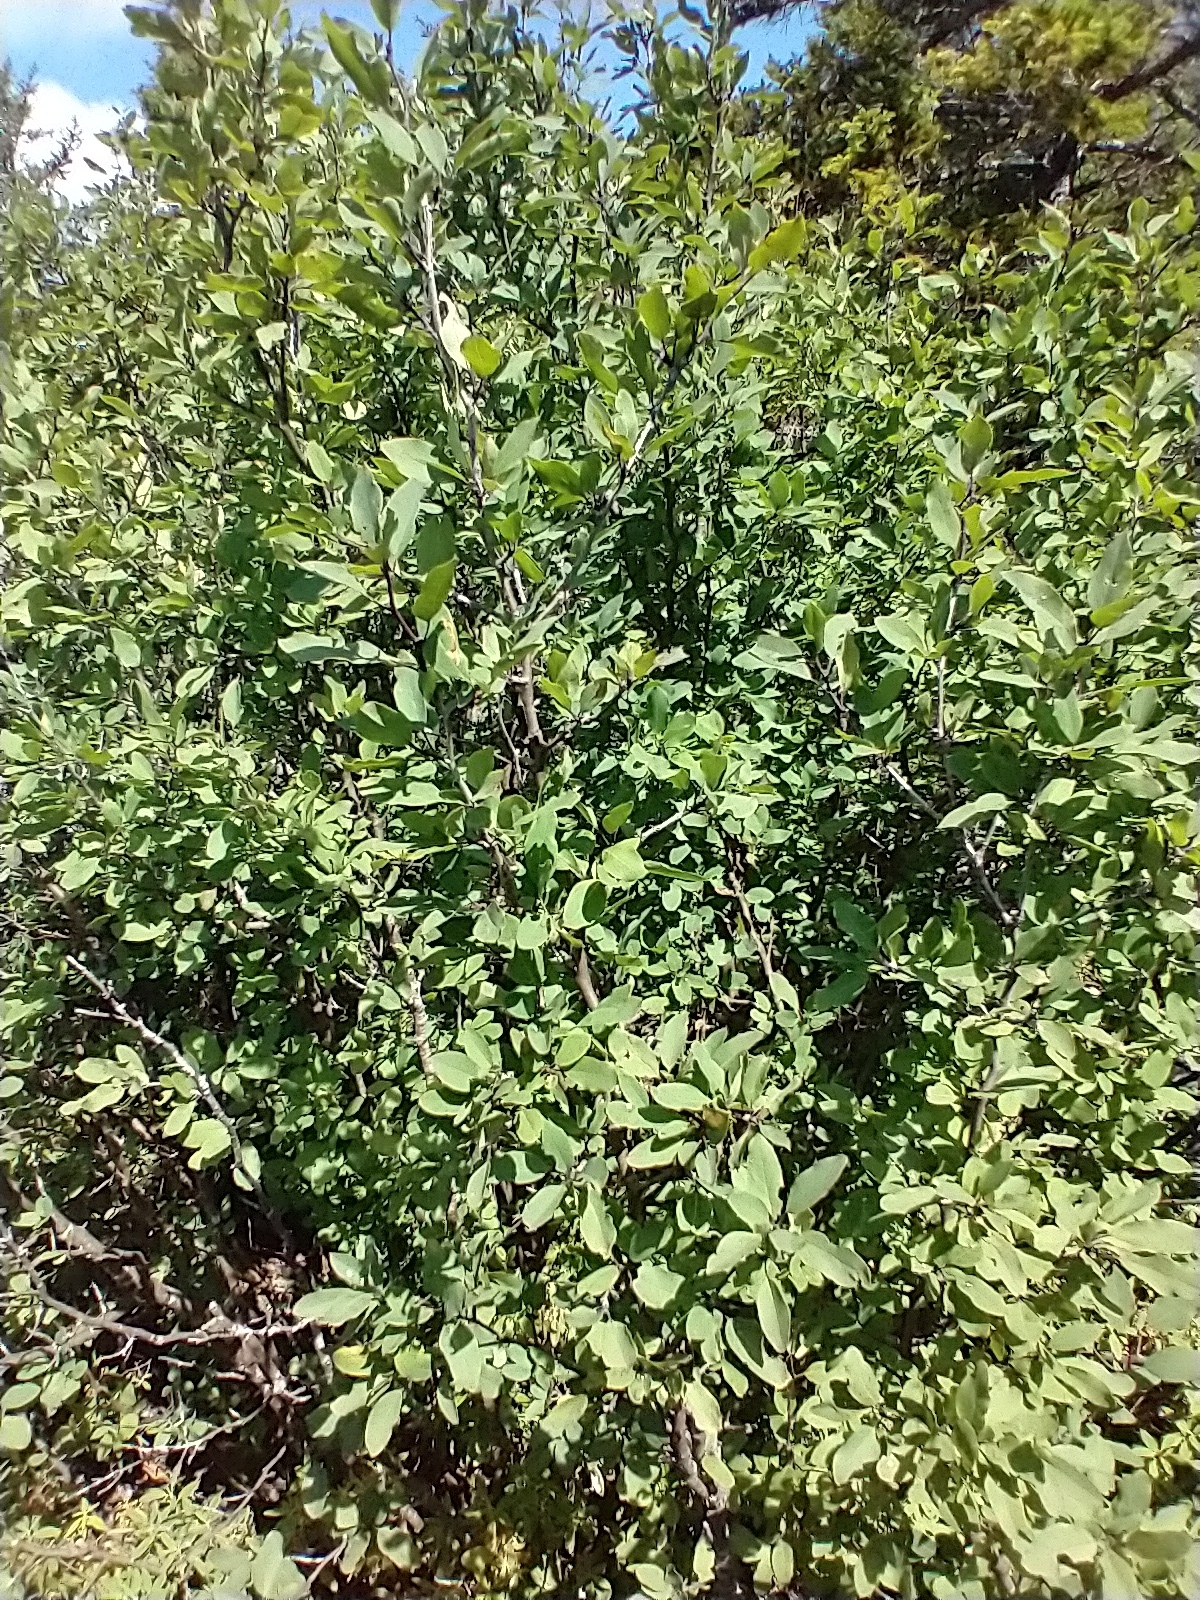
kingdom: Plantae
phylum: Tracheophyta
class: Magnoliopsida
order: Aquifoliales
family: Aquifoliaceae
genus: Ilex
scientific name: Ilex mucronata
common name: Catberry
